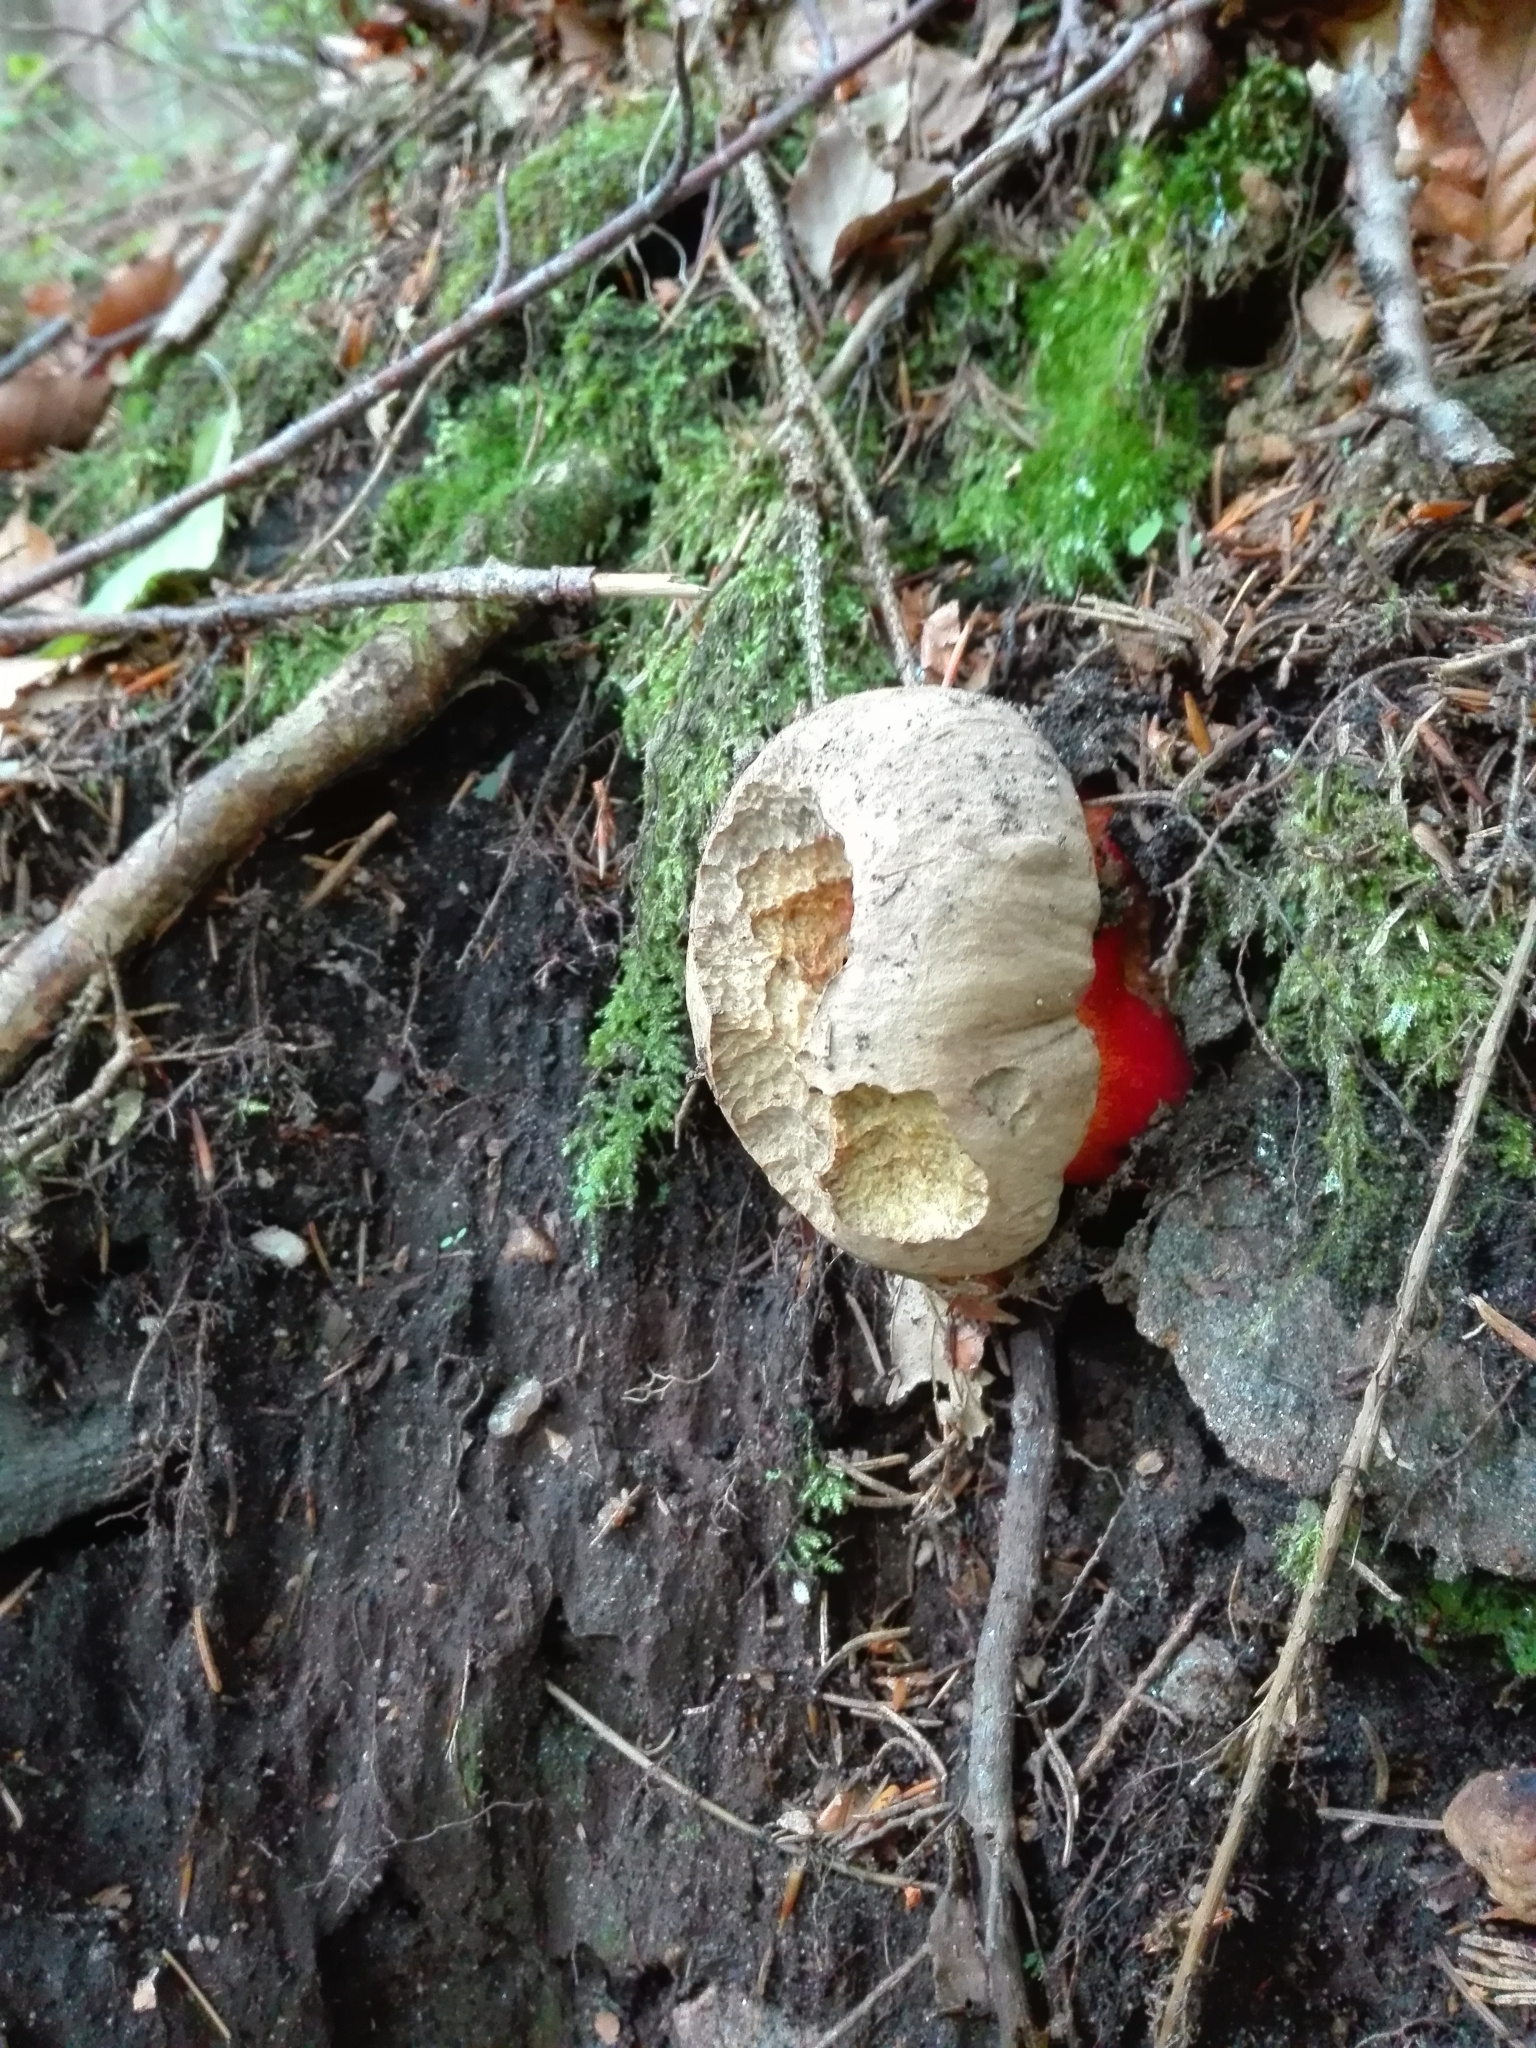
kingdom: Fungi
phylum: Basidiomycota
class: Agaricomycetes
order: Boletales
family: Boletaceae
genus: Caloboletus
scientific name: Caloboletus calopus
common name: Bitter beech bolete
